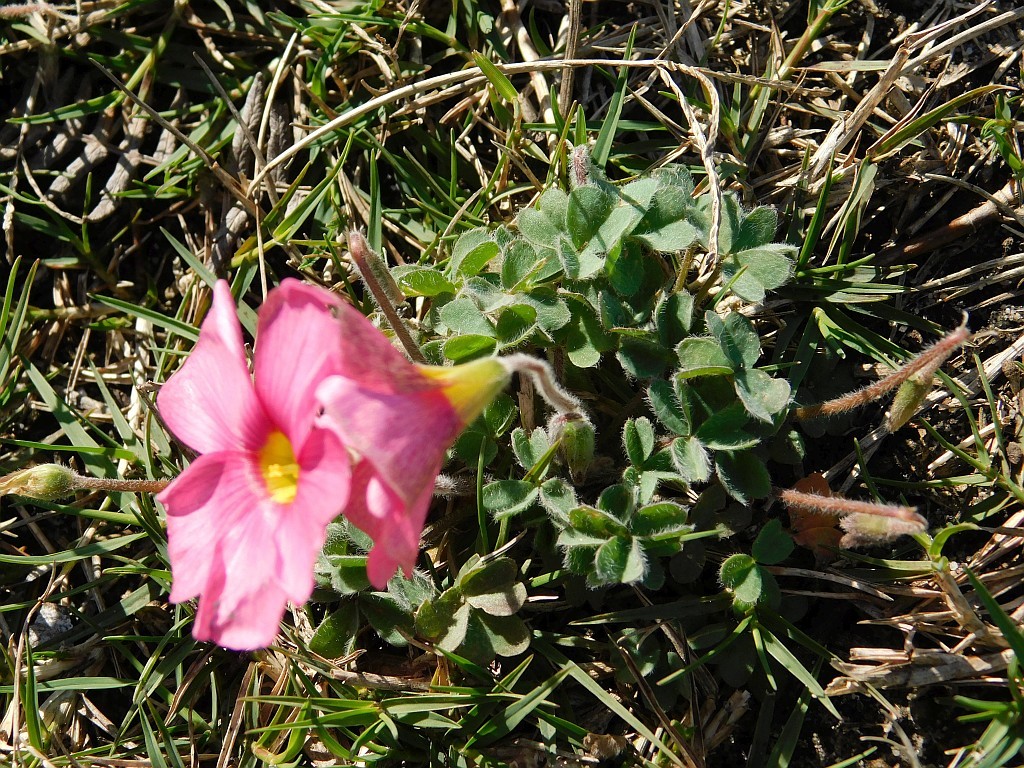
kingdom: Plantae
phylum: Tracheophyta
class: Magnoliopsida
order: Oxalidales
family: Oxalidaceae
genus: Oxalis
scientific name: Oxalis obtusa
